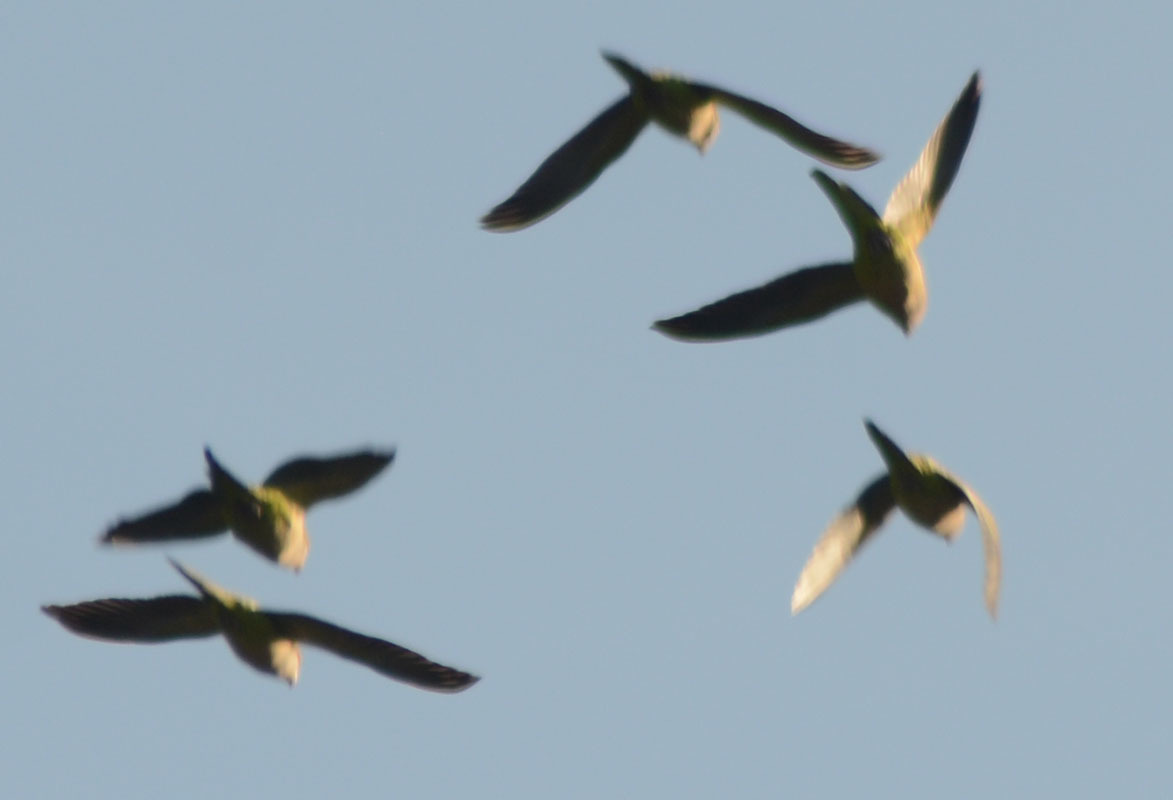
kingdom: Animalia
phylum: Chordata
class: Aves
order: Psittaciformes
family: Psittacidae
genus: Myiopsitta
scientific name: Myiopsitta monachus
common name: Monk parakeet
